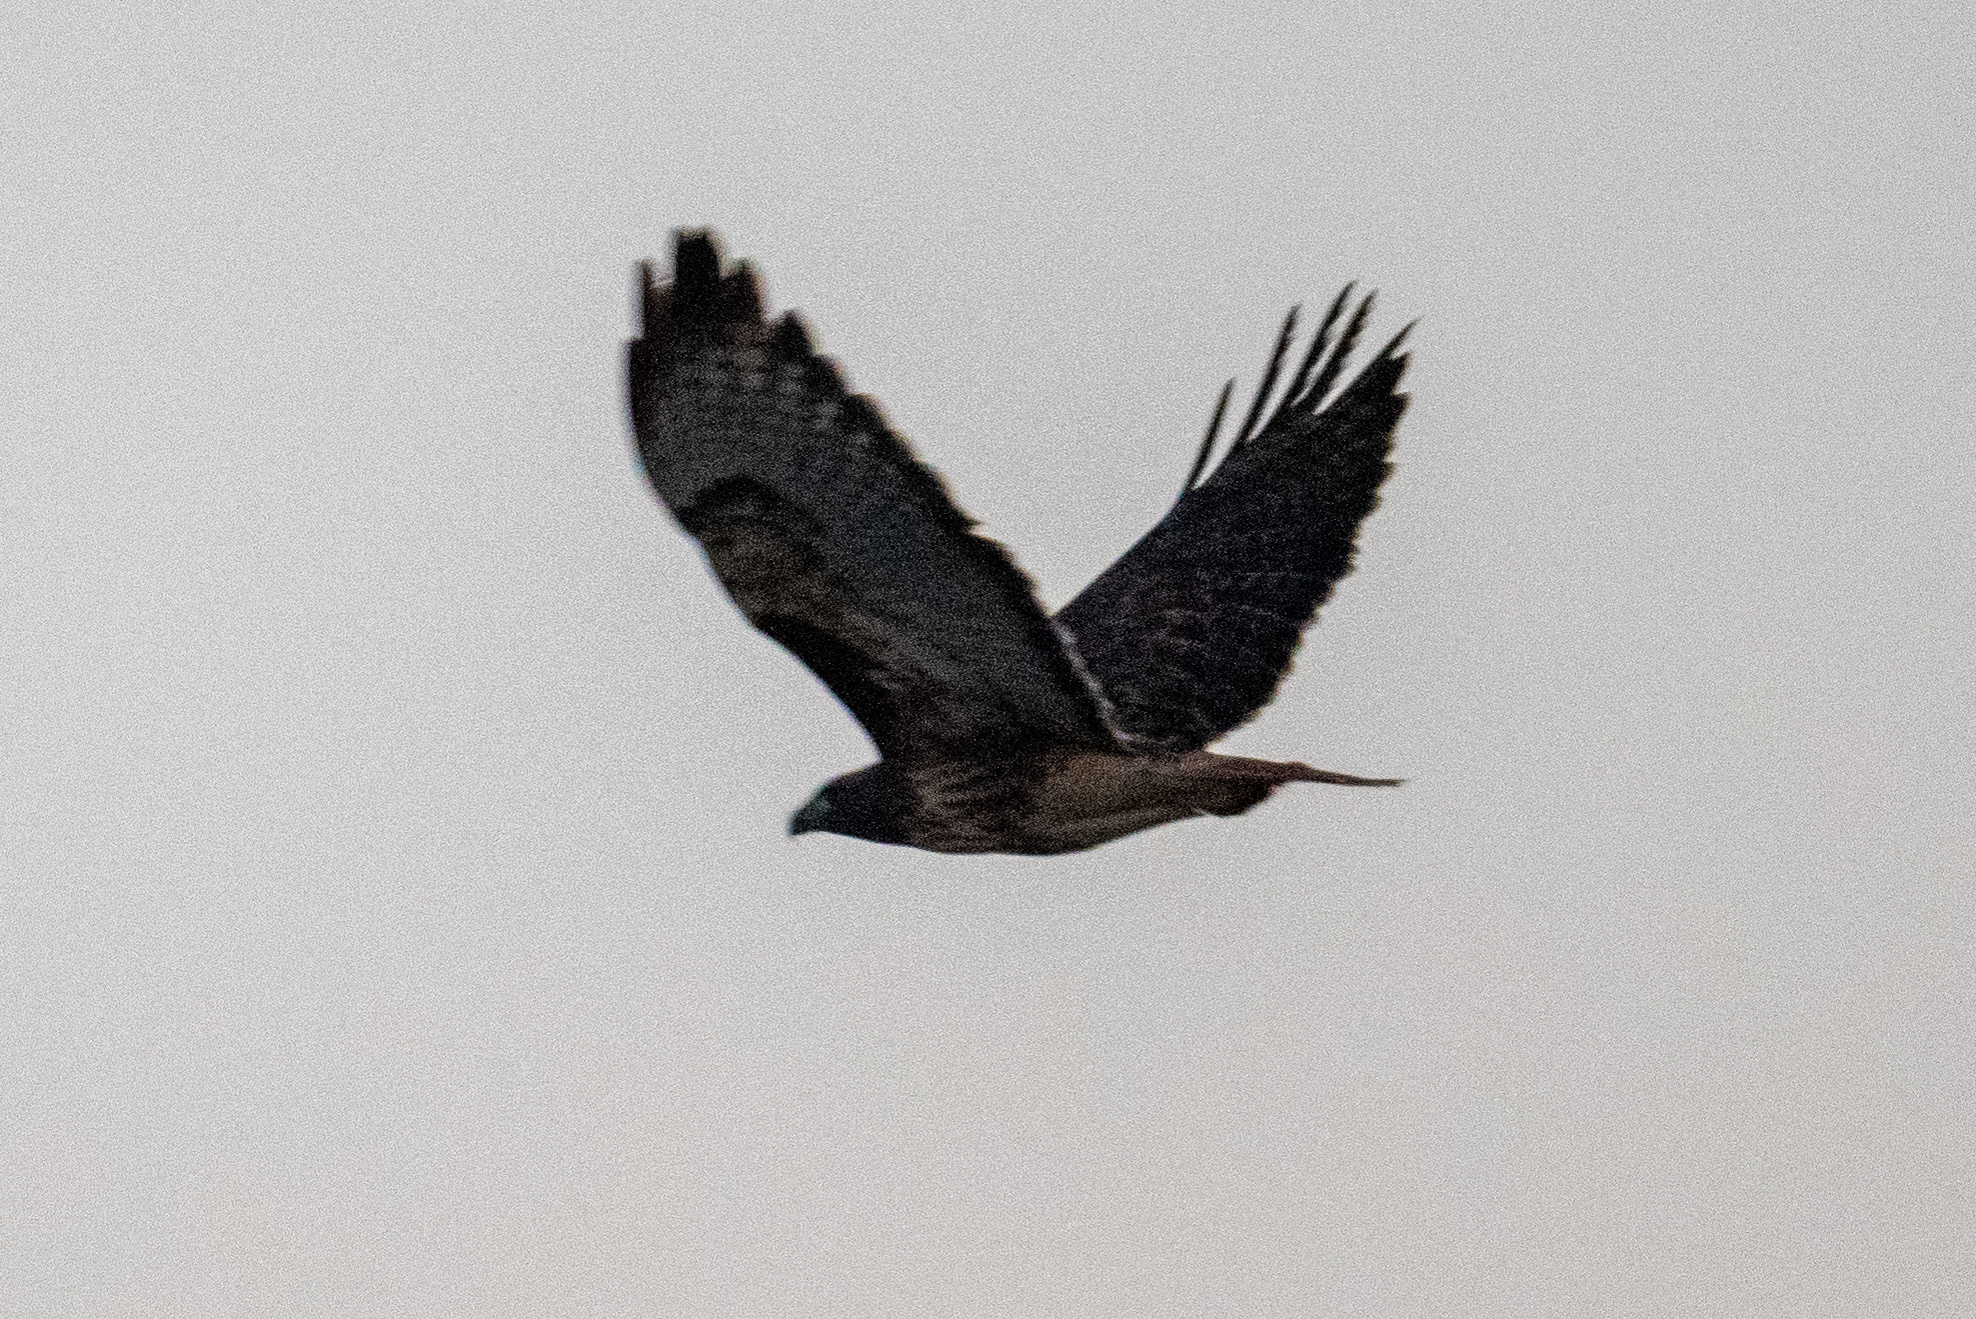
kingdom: Animalia
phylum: Chordata
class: Aves
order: Accipitriformes
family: Accipitridae
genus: Buteo
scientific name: Buteo jamaicensis
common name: Red-tailed hawk
